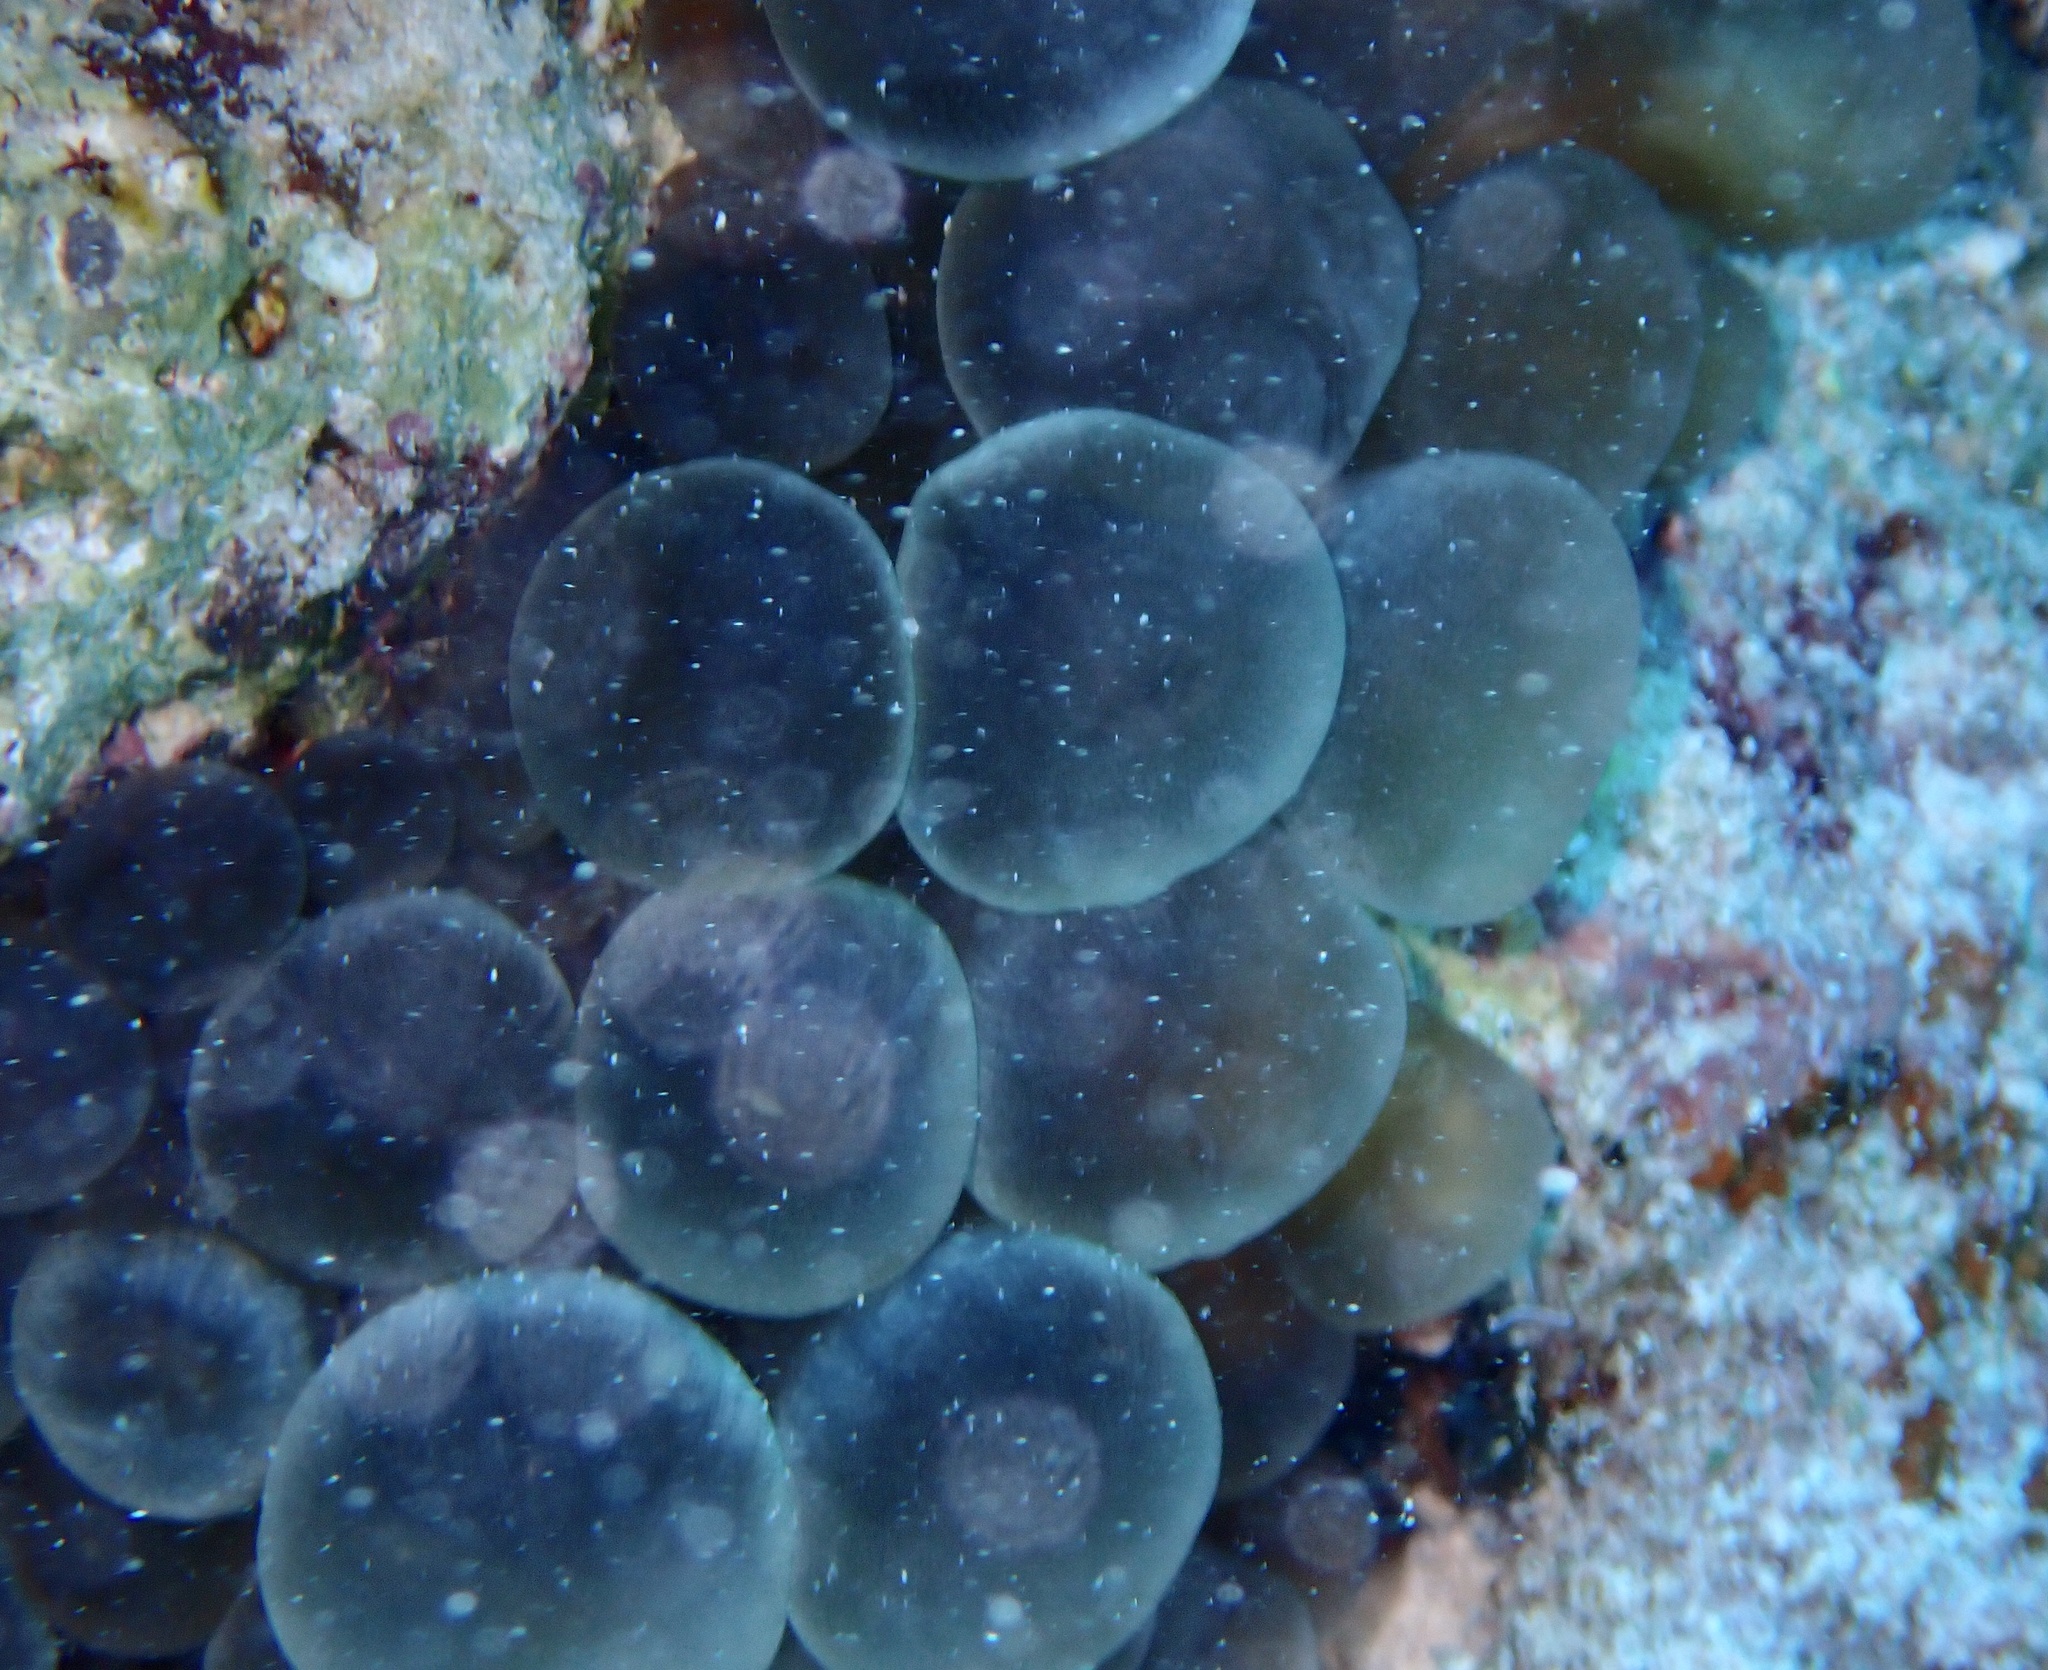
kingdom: Animalia
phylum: Cnidaria
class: Anthozoa
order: Actiniaria
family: Actiniidae
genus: Entacmaea
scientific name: Entacmaea quadricolor
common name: Bulb tentacle sea anemone
